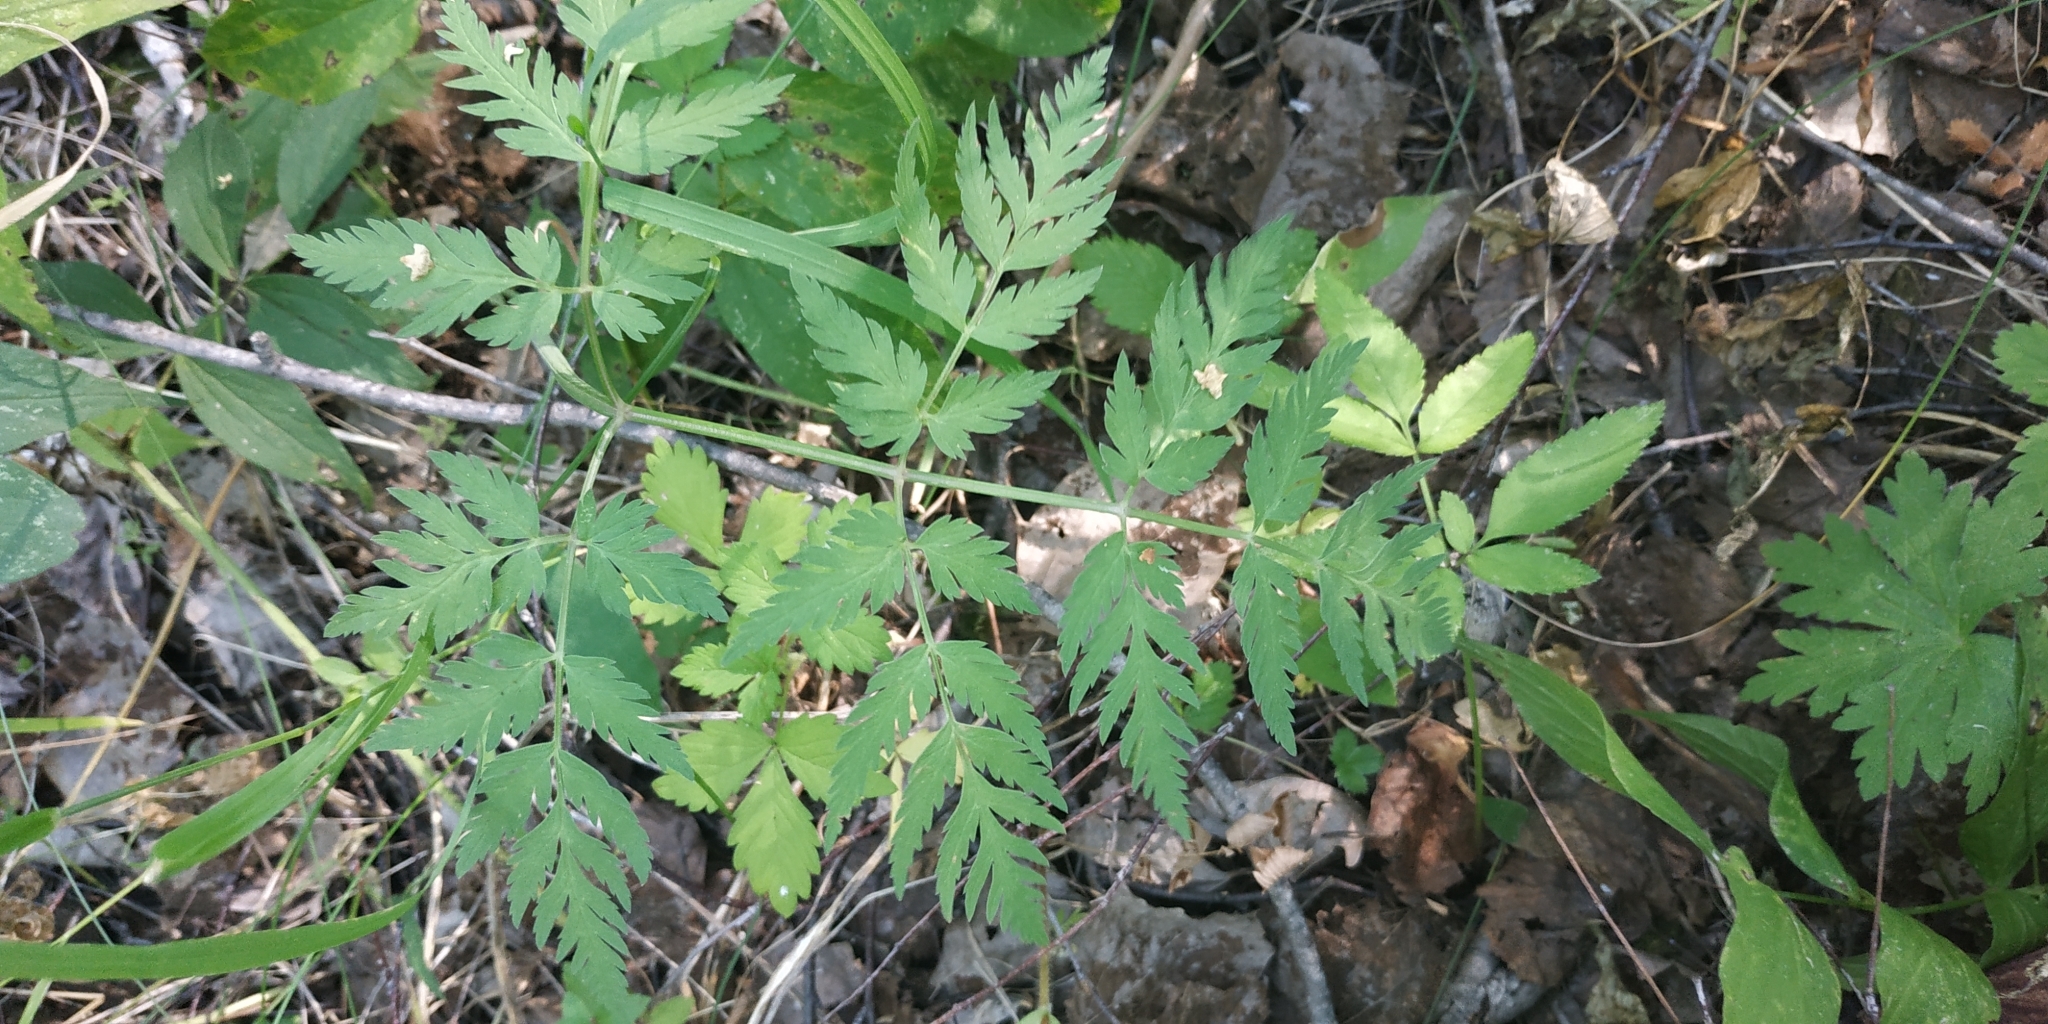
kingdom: Plantae
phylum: Tracheophyta
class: Magnoliopsida
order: Apiales
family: Apiaceae
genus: Anthriscus
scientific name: Anthriscus sylvestris
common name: Cow parsley
